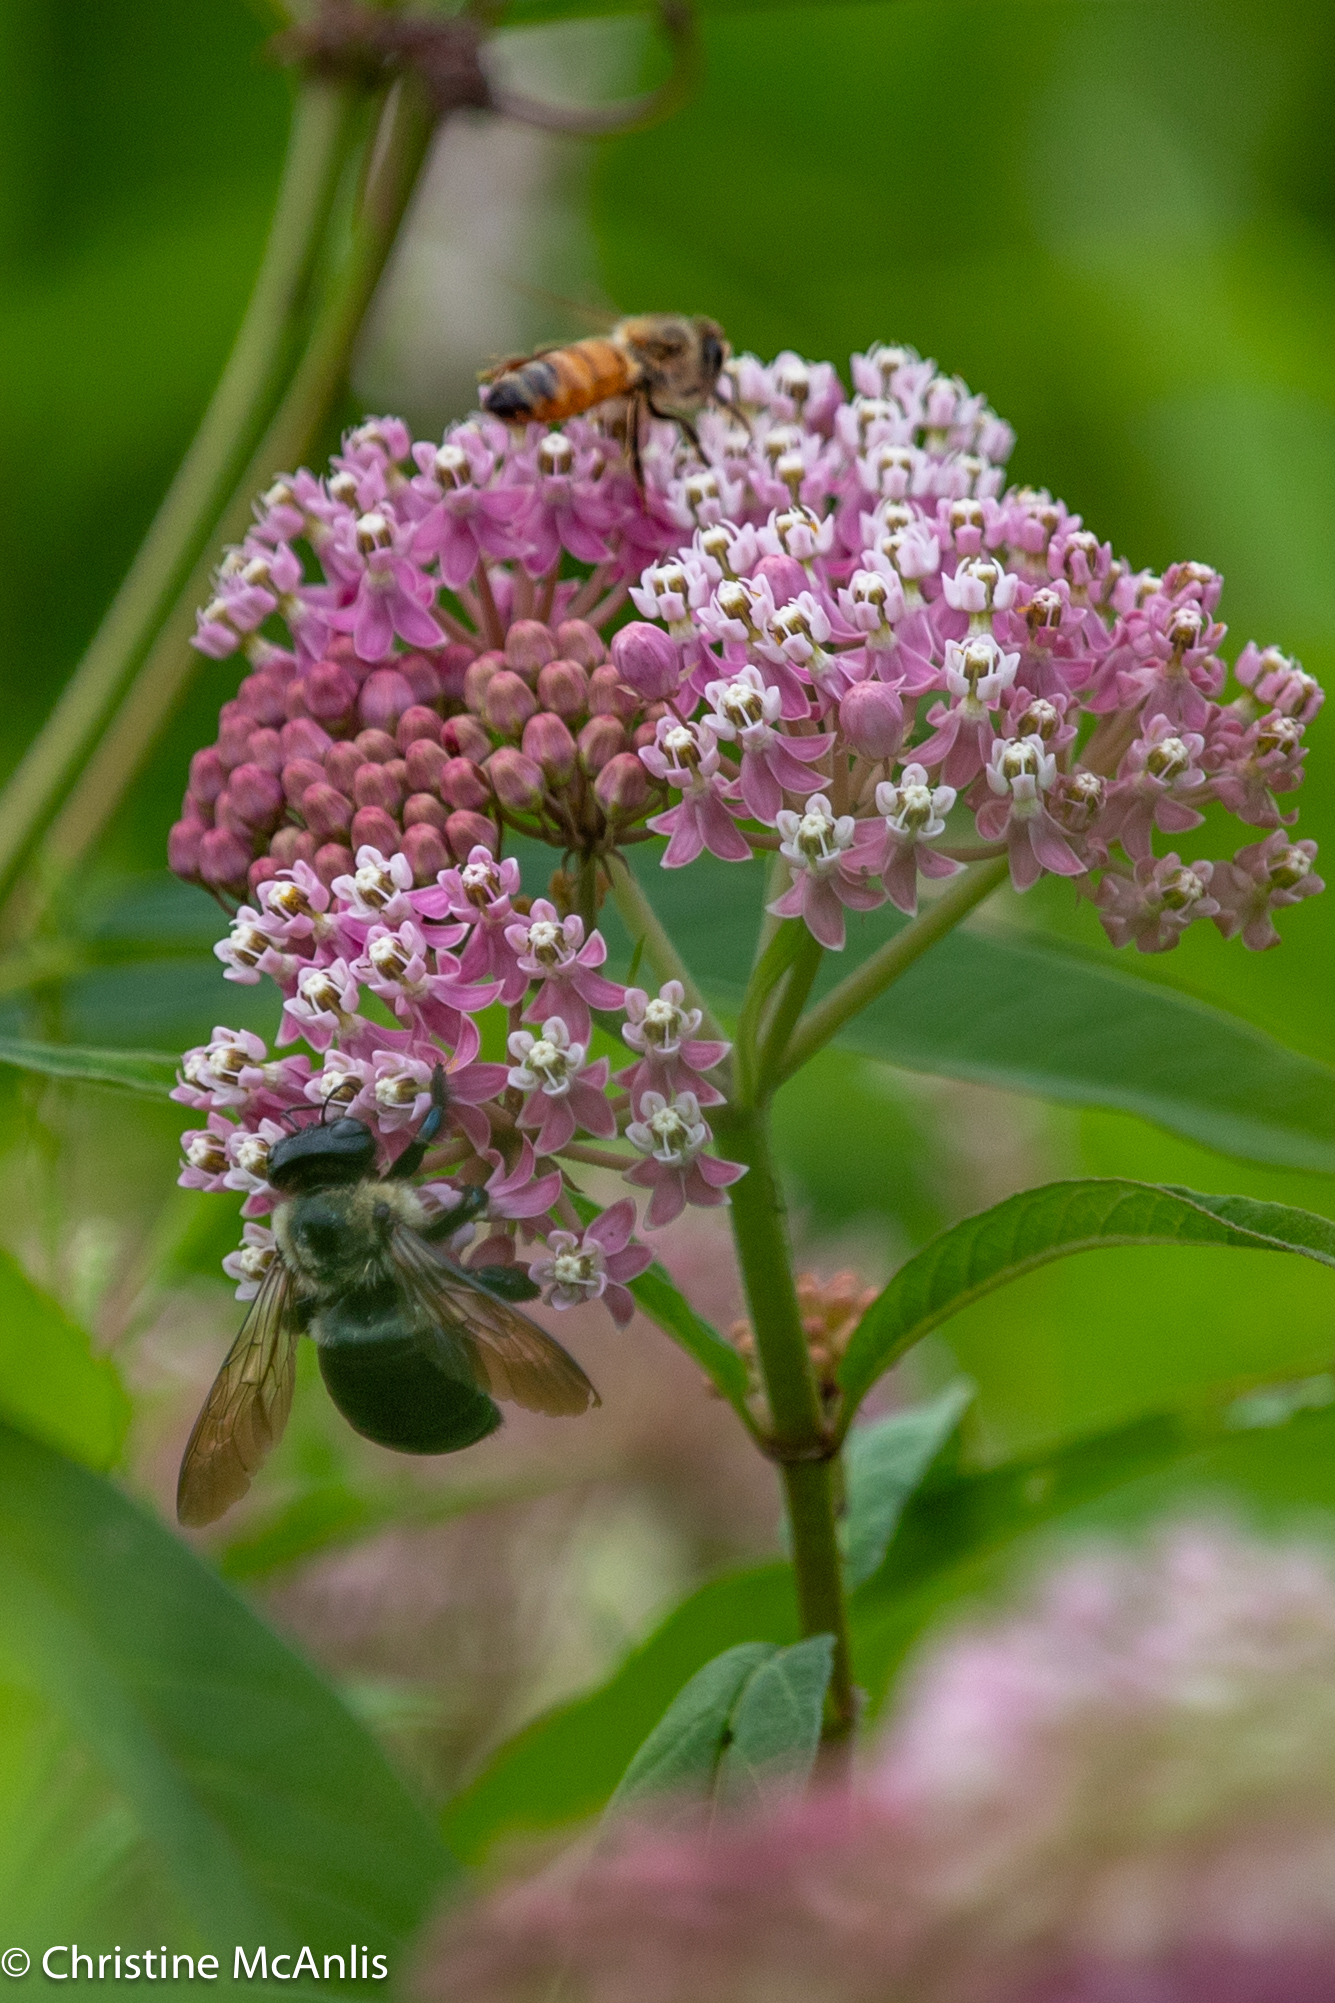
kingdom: Plantae
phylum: Tracheophyta
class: Magnoliopsida
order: Gentianales
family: Apocynaceae
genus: Asclepias
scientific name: Asclepias incarnata
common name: Swamp milkweed
